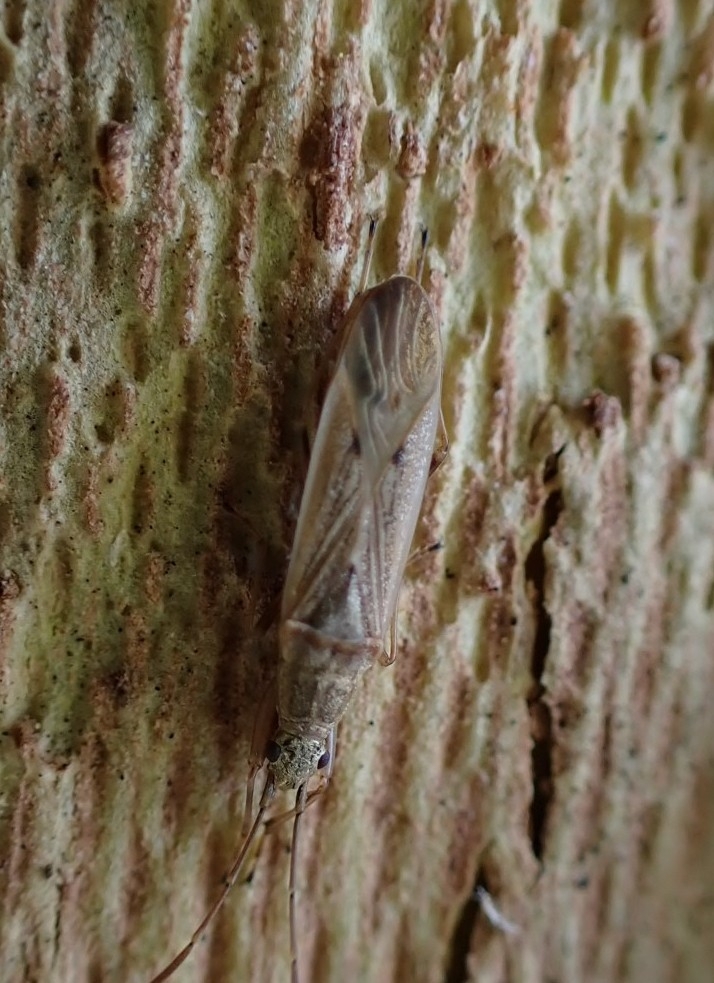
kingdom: Animalia
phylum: Arthropoda
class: Insecta
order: Hemiptera
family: Rhyparochromidae
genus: Paromius
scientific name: Paromius gracilis
